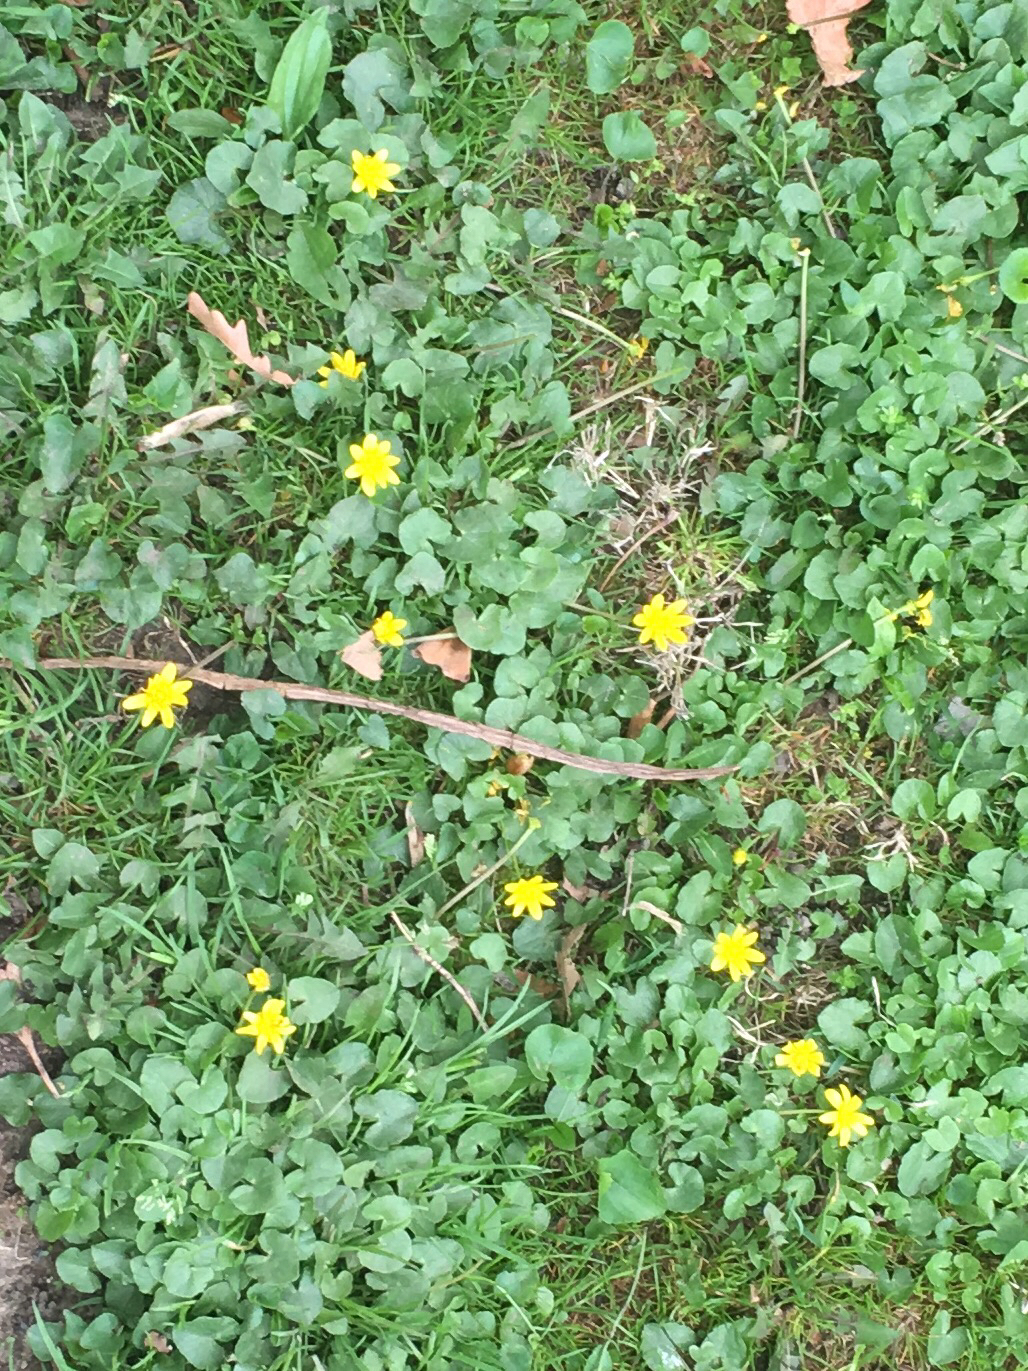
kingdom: Plantae
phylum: Tracheophyta
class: Magnoliopsida
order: Ranunculales
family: Ranunculaceae
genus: Ficaria
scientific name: Ficaria verna
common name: Lesser celandine
